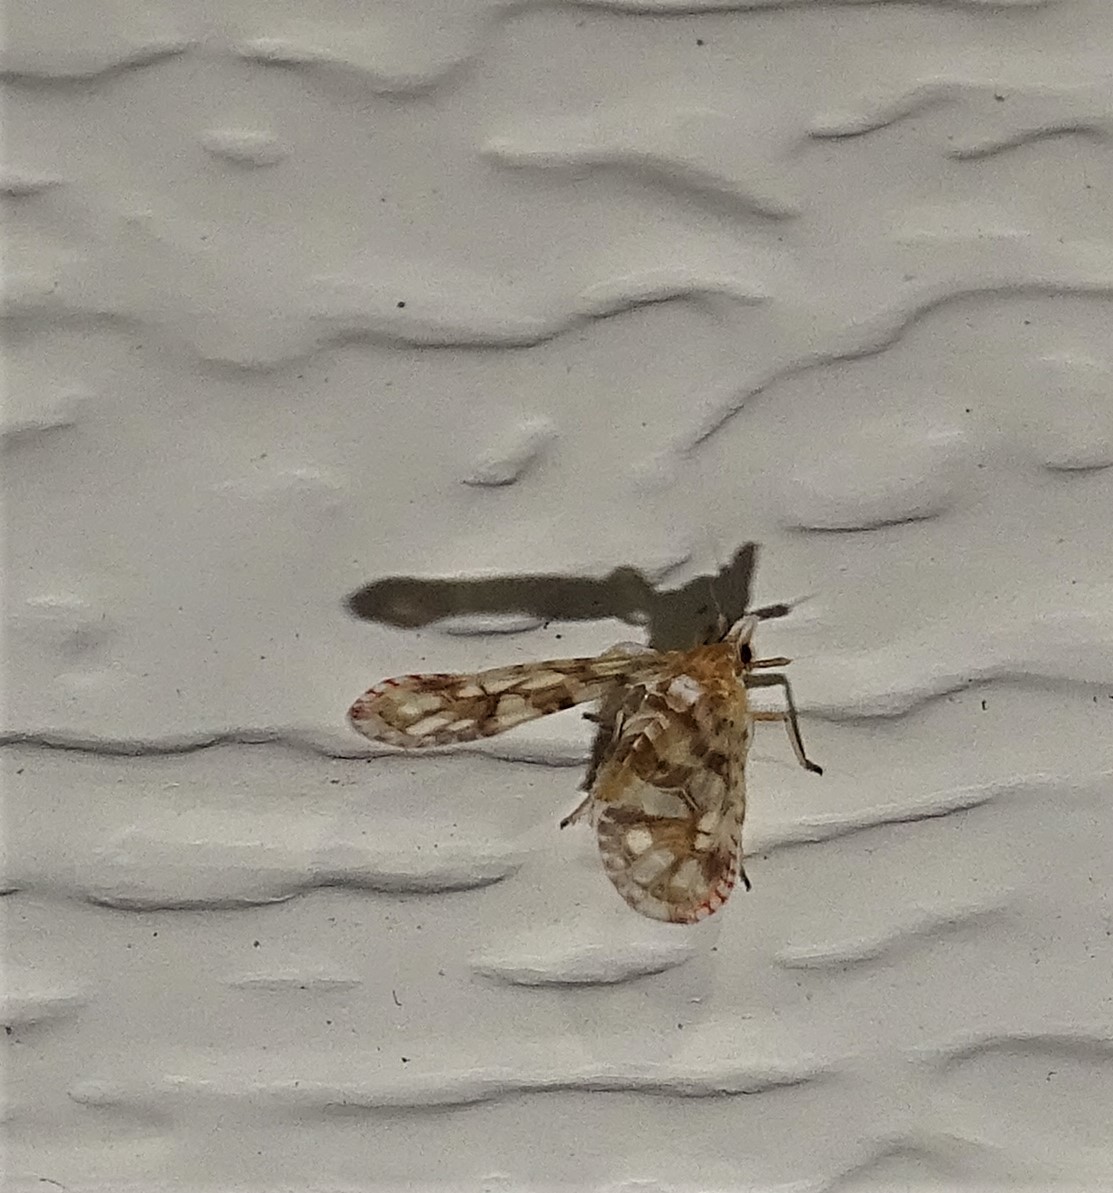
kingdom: Animalia
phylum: Arthropoda
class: Insecta
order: Hemiptera
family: Derbidae
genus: Anotia
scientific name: Anotia kirkaldyi
